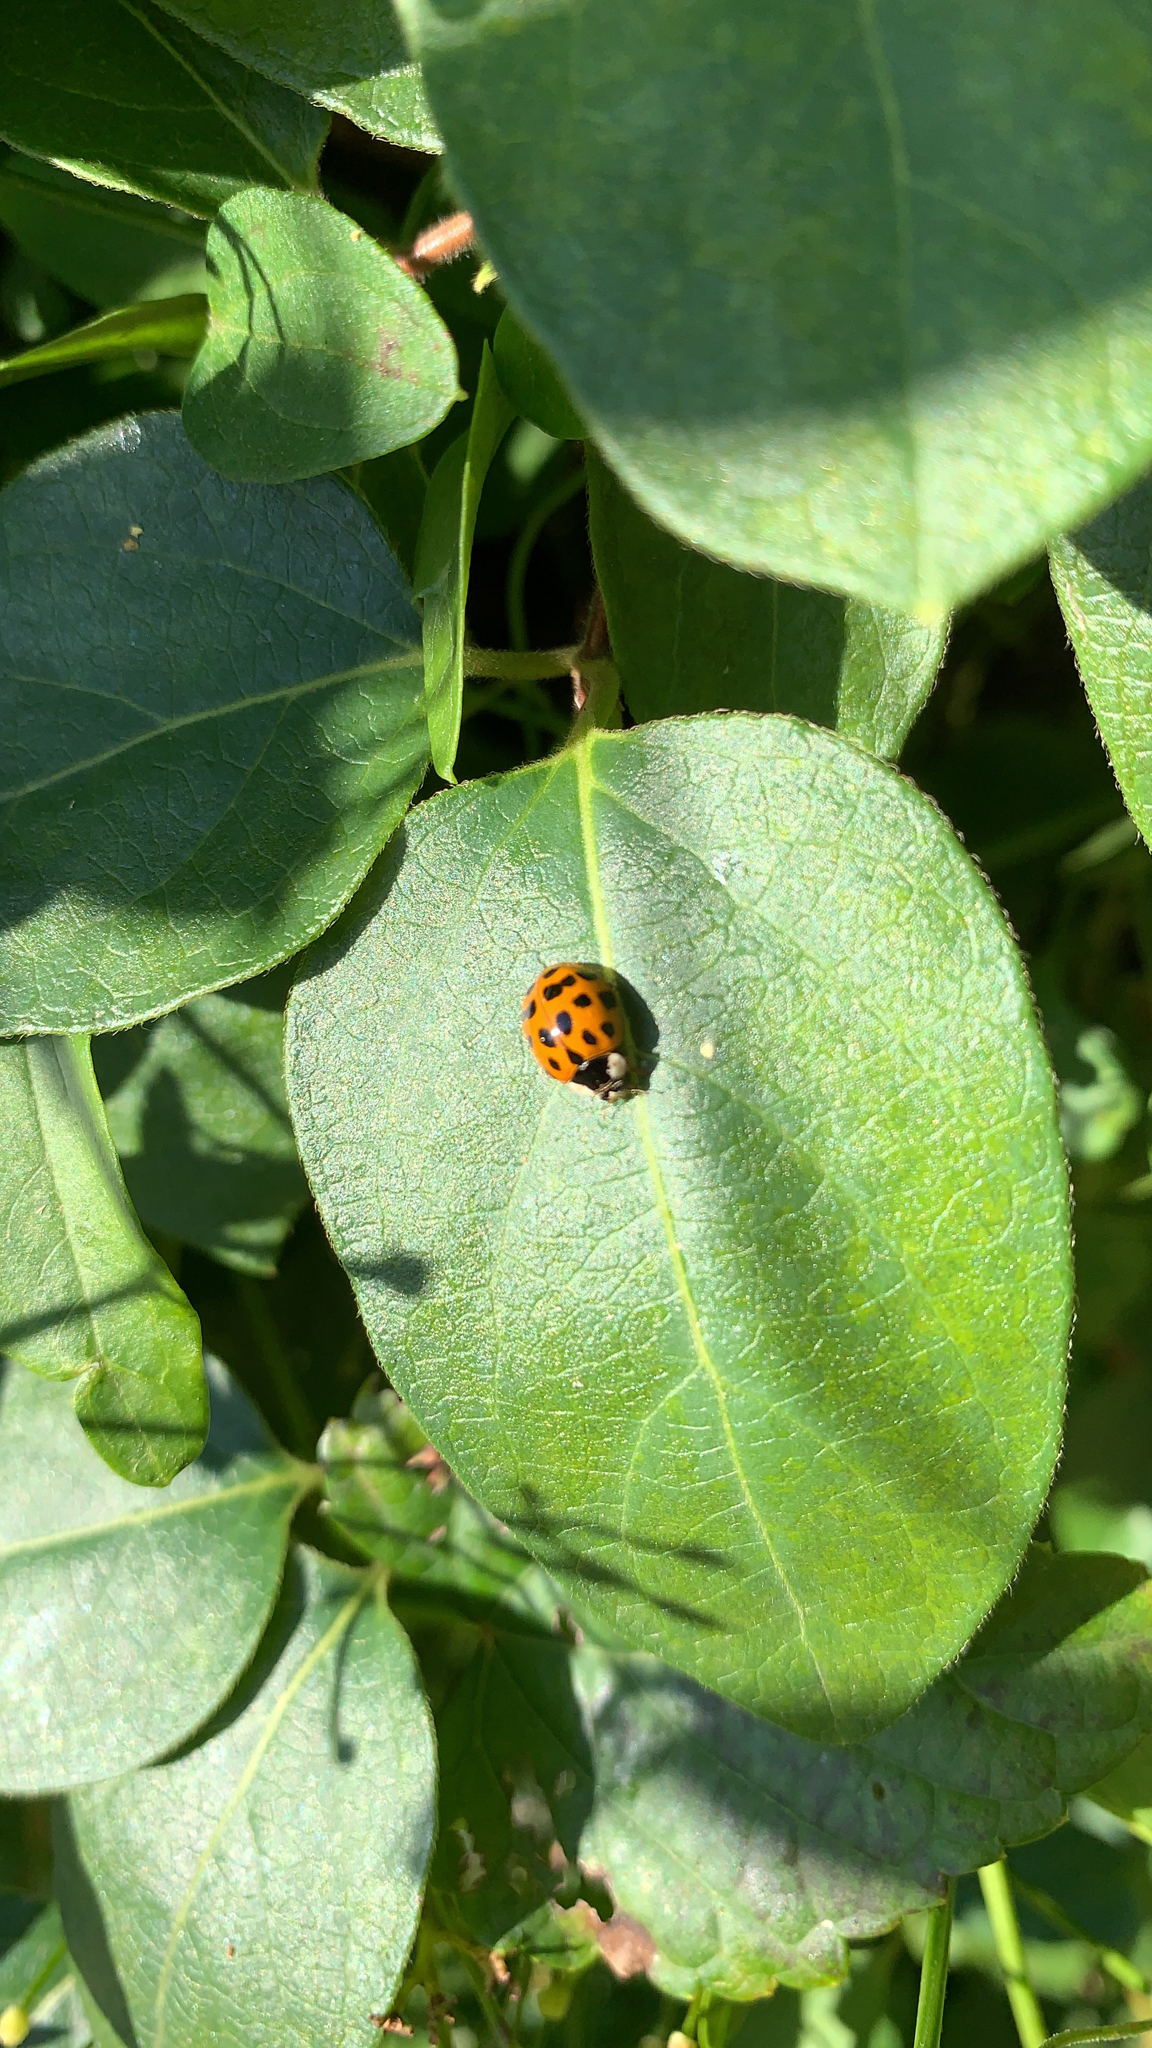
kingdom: Animalia
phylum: Arthropoda
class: Insecta
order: Coleoptera
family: Coccinellidae
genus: Harmonia
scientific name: Harmonia axyridis
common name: Harlequin ladybird
